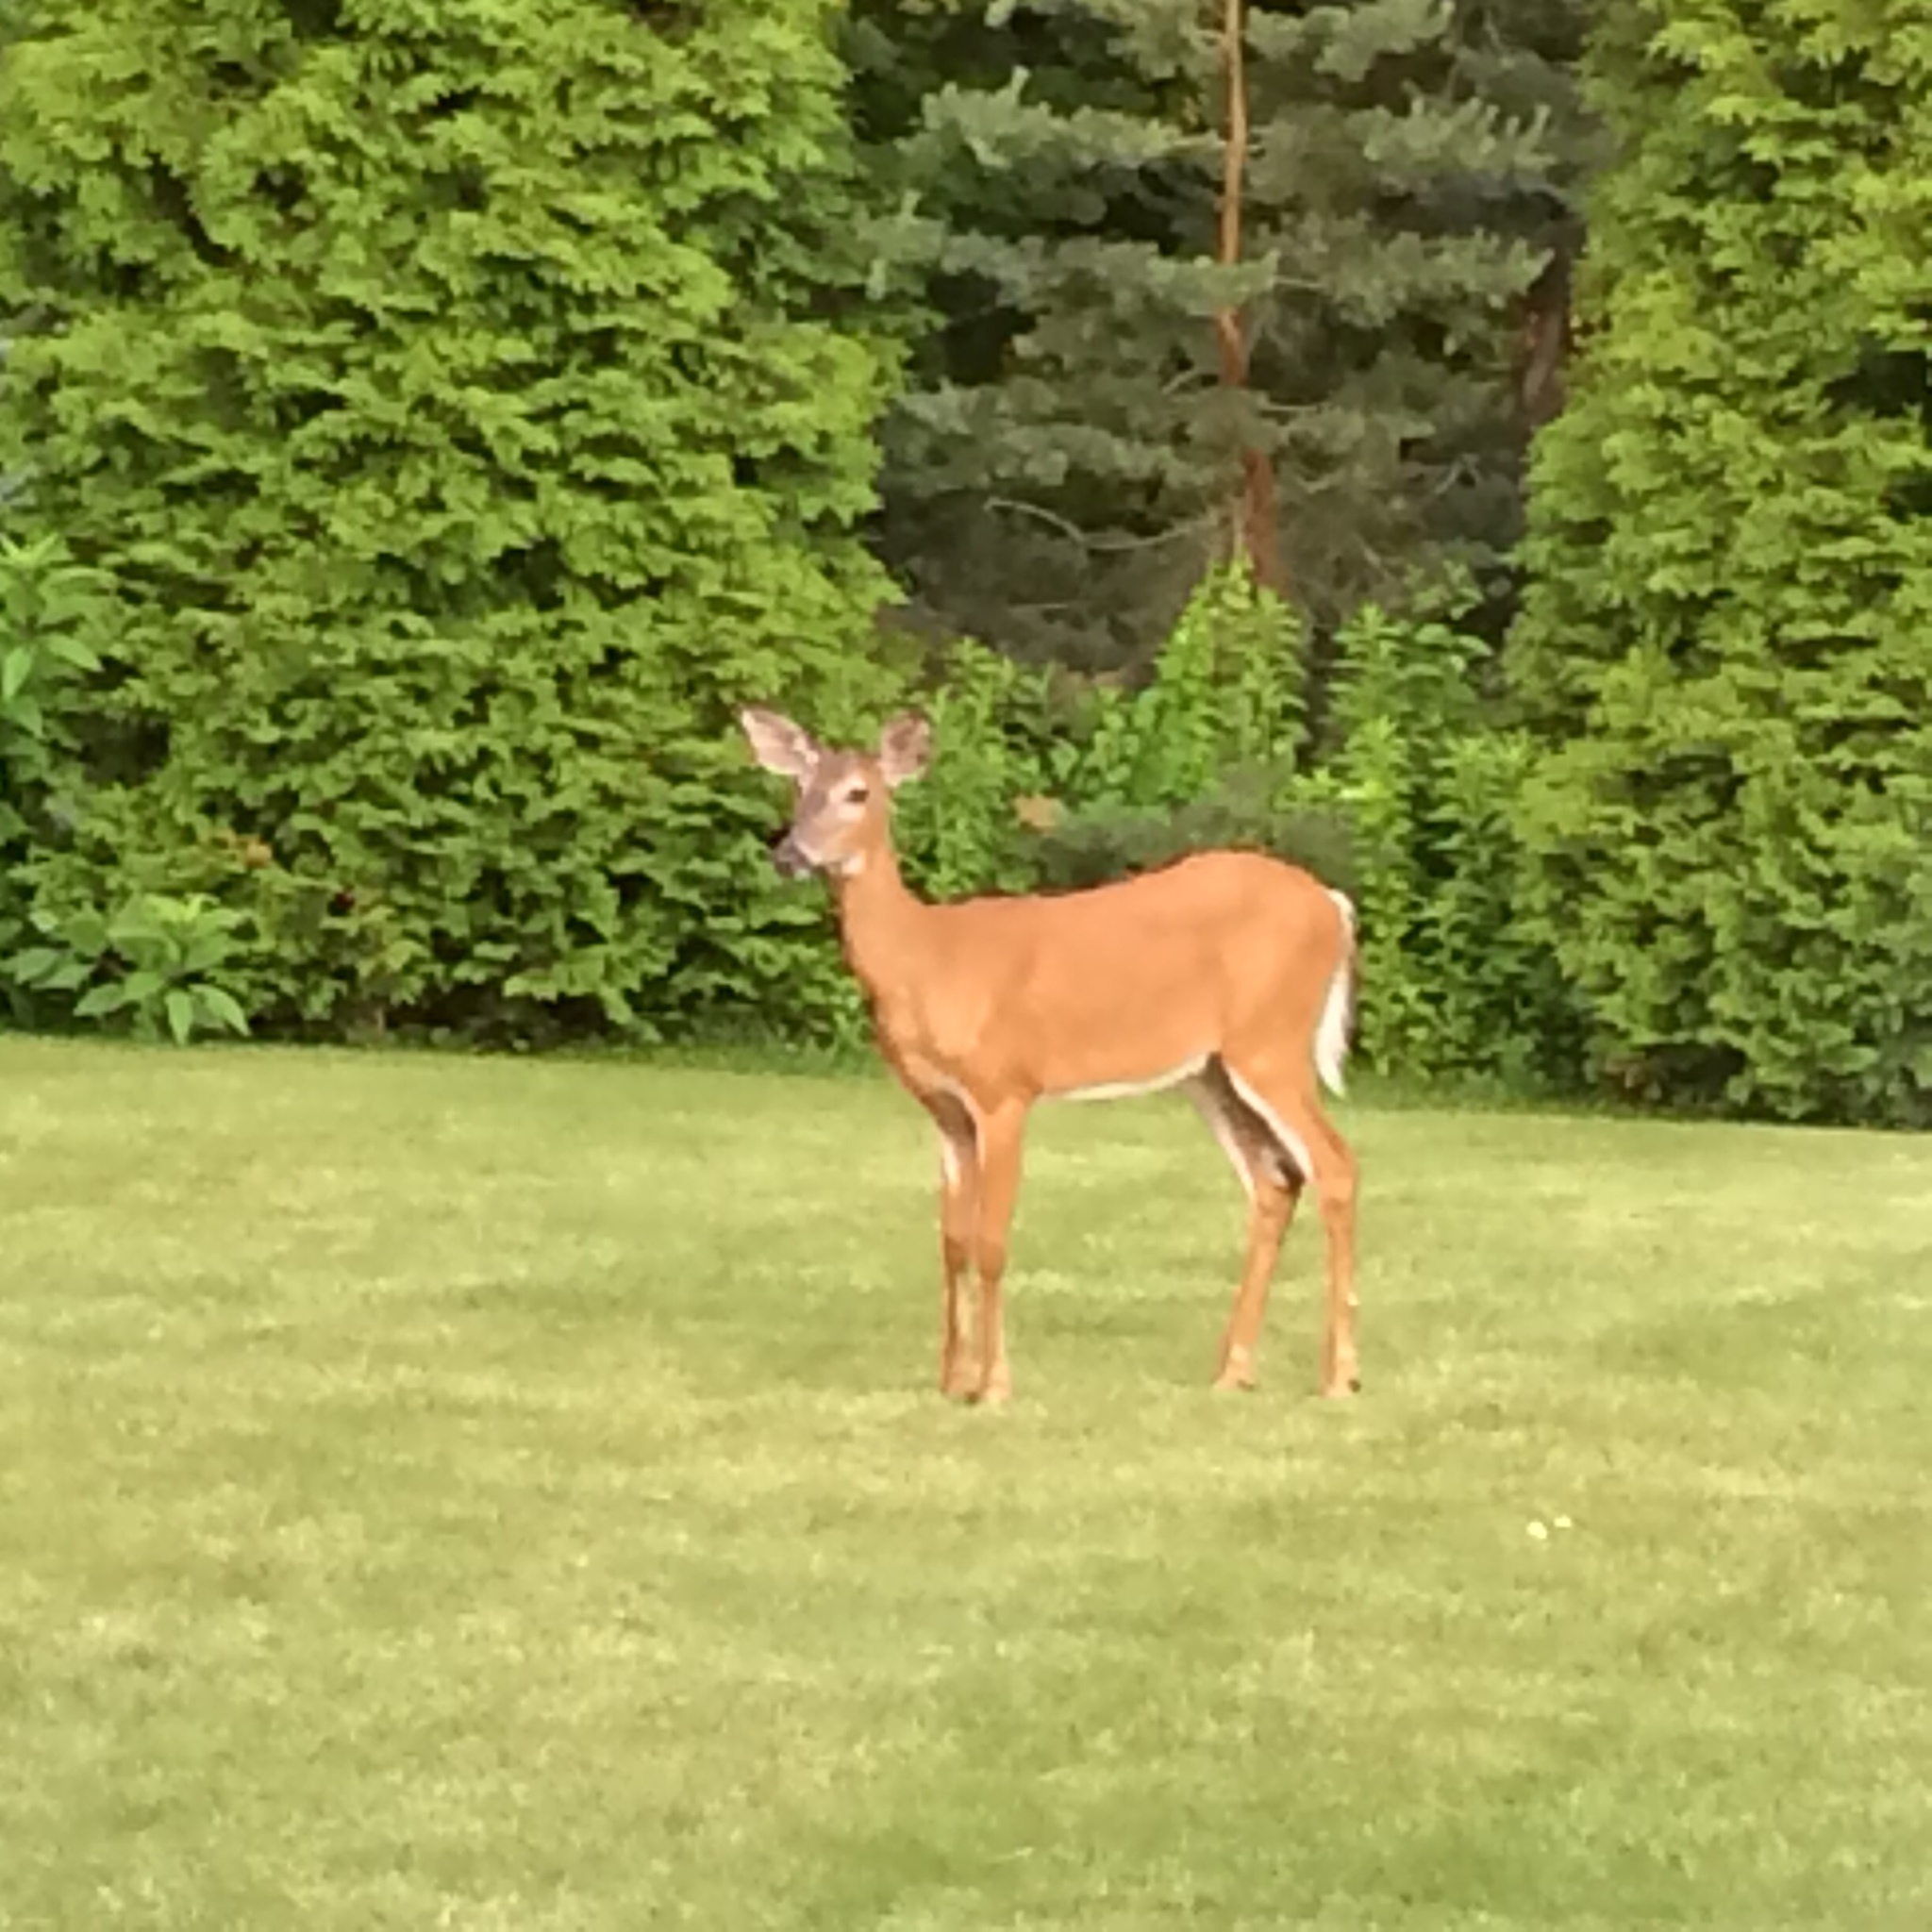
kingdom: Animalia
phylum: Chordata
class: Mammalia
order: Artiodactyla
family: Cervidae
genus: Odocoileus
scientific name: Odocoileus virginianus
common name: White-tailed deer
